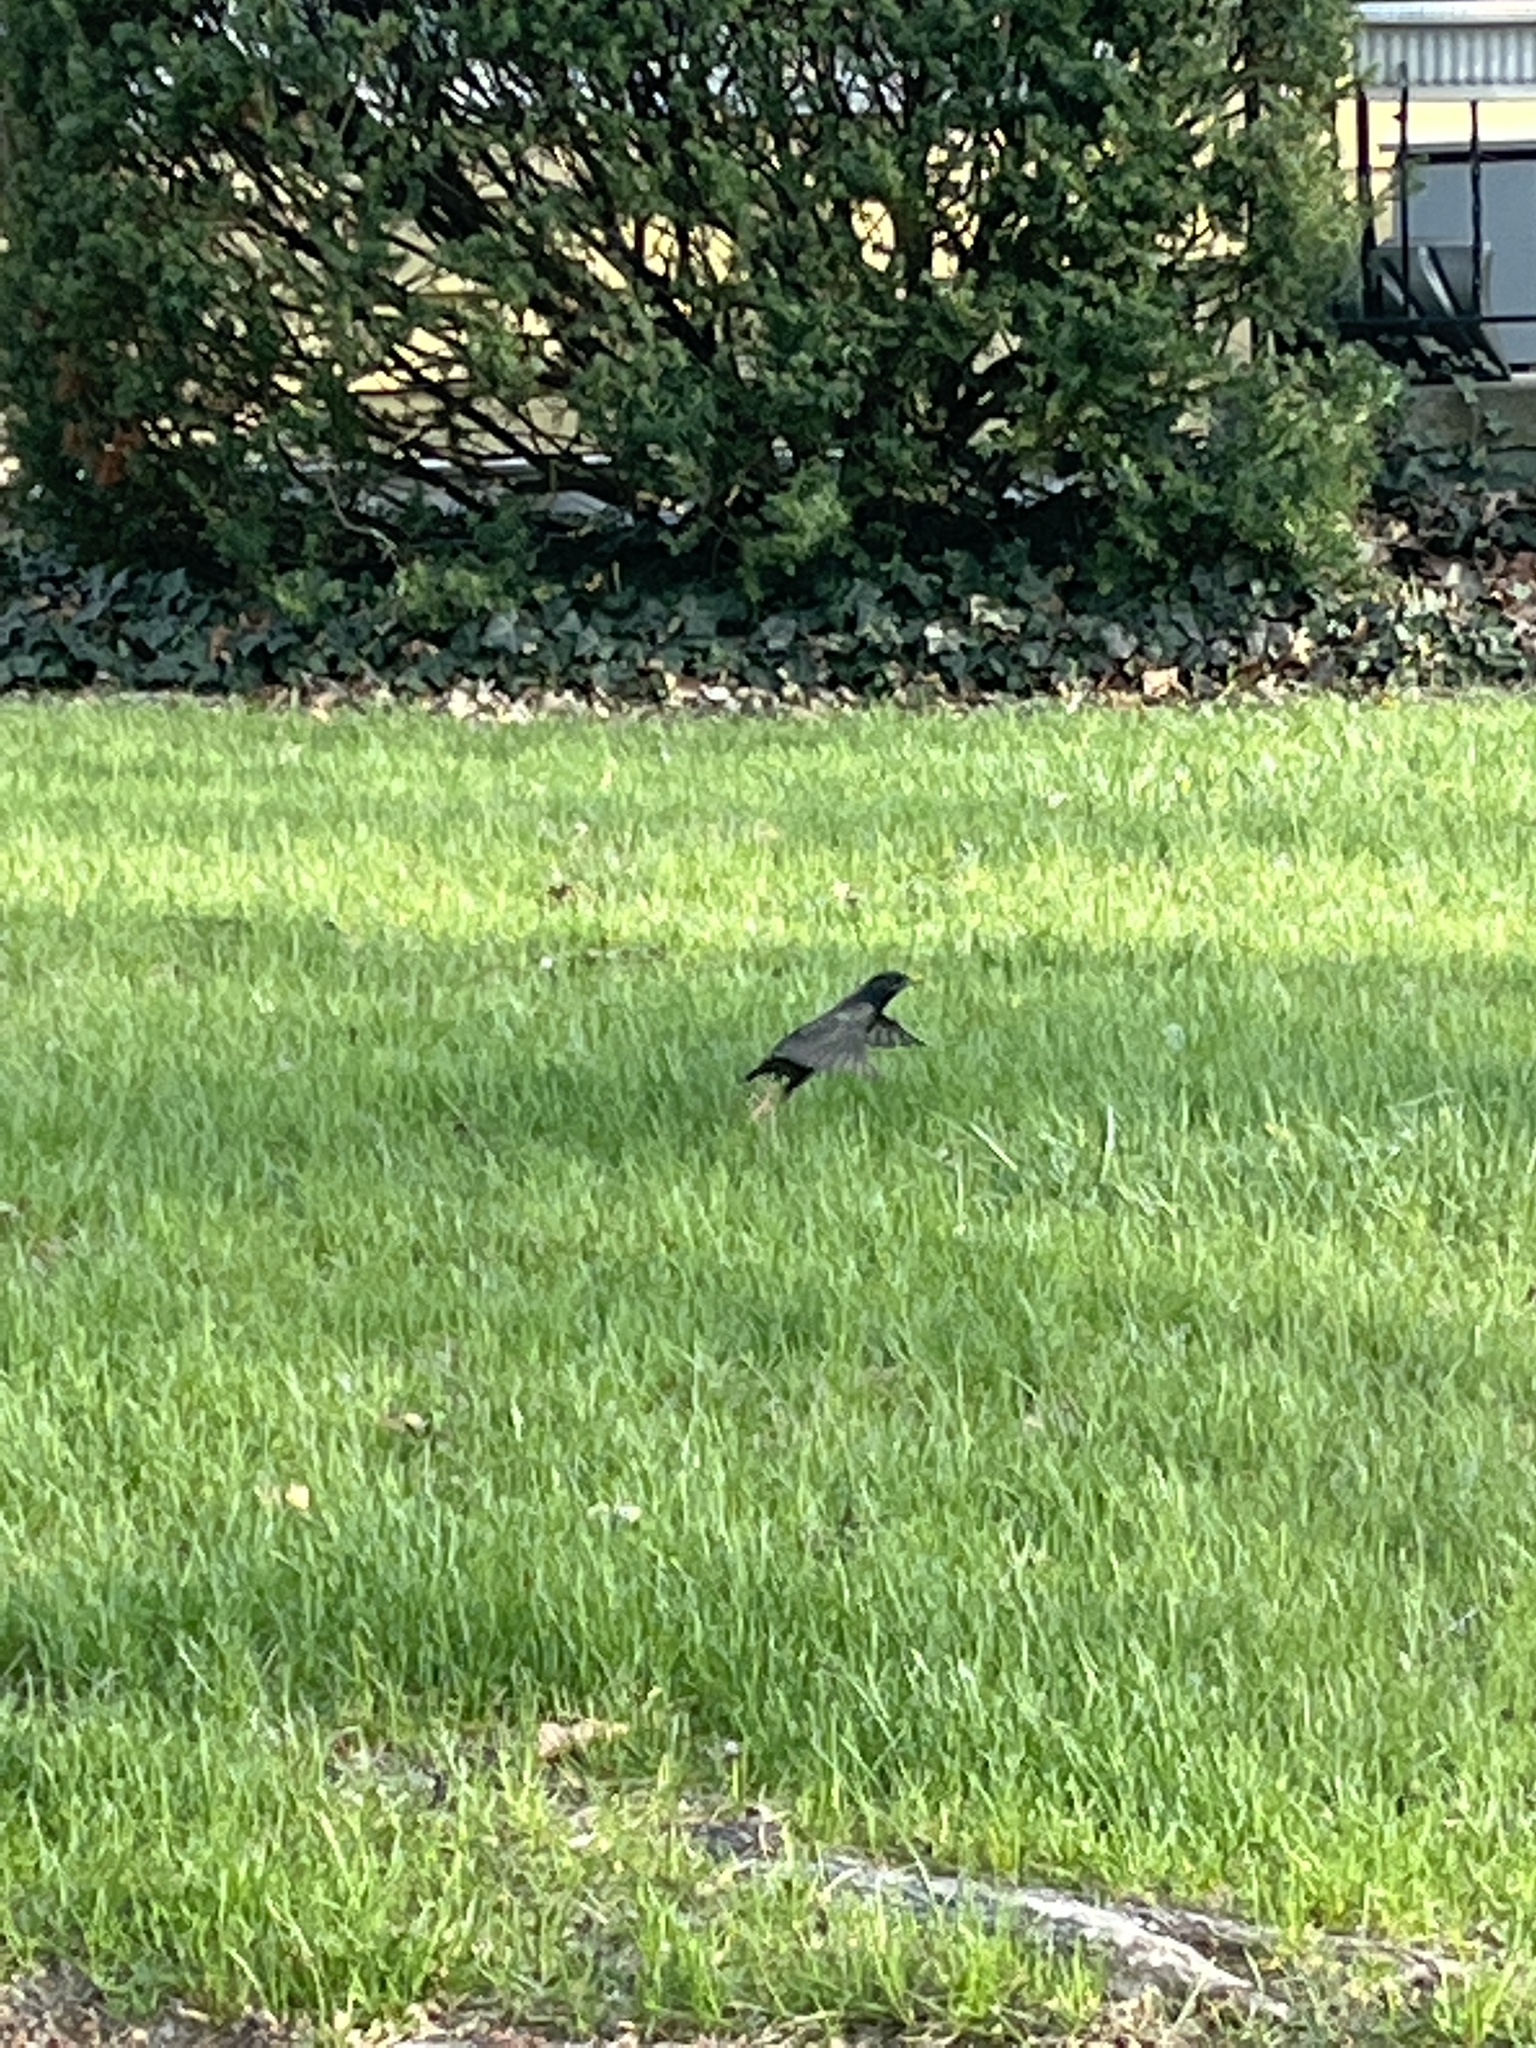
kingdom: Animalia
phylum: Chordata
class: Aves
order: Passeriformes
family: Sturnidae
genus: Sturnus
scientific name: Sturnus vulgaris
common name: Common starling
